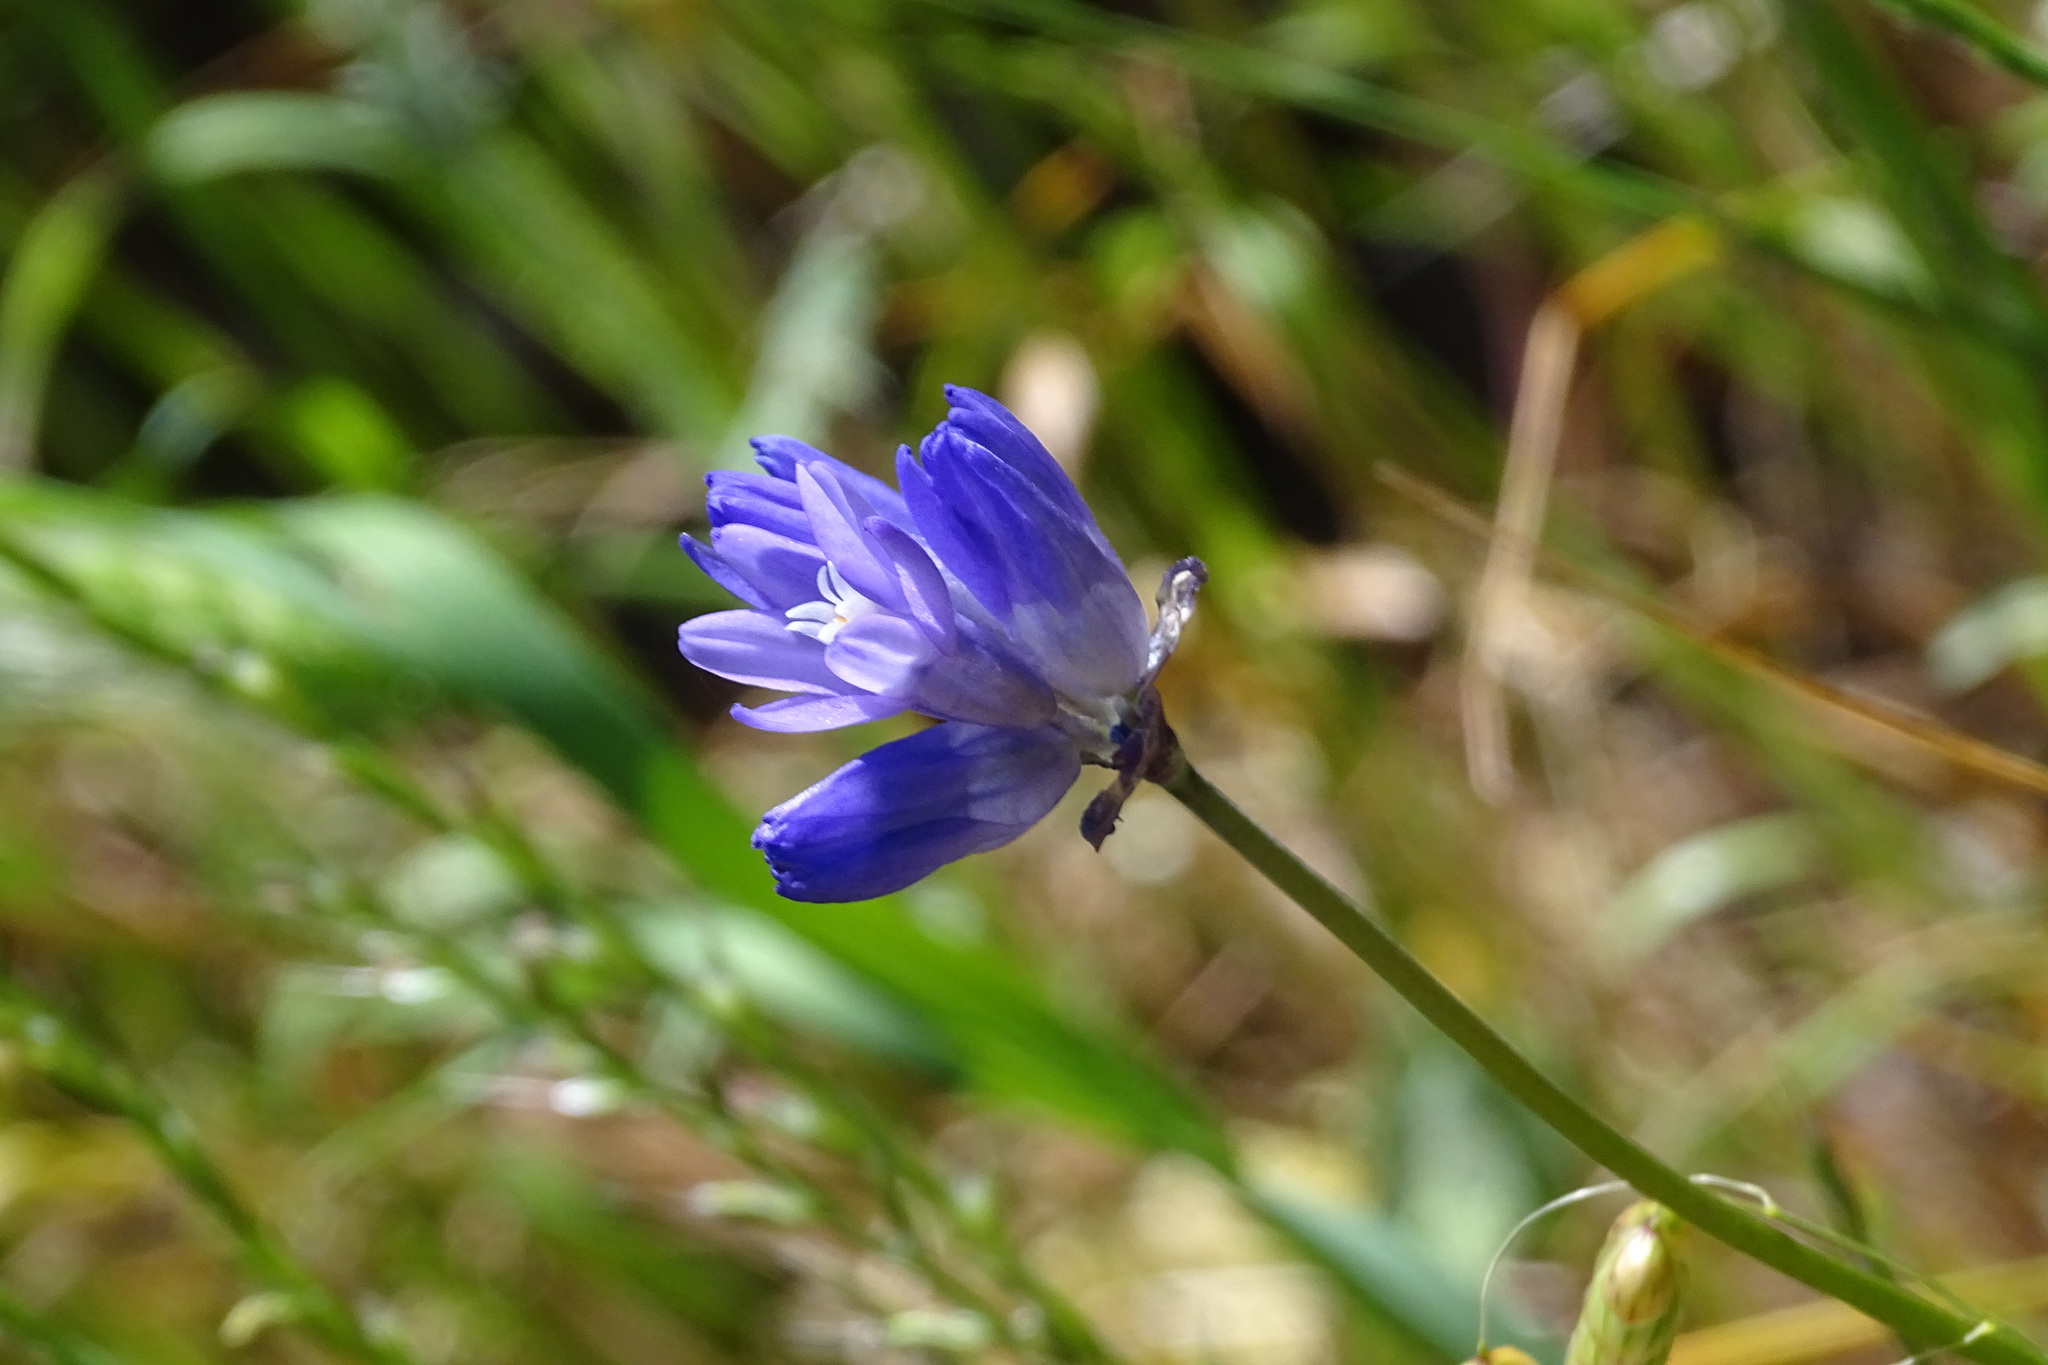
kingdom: Plantae
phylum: Tracheophyta
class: Liliopsida
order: Asparagales
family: Asparagaceae
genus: Dipterostemon
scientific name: Dipterostemon capitatus
